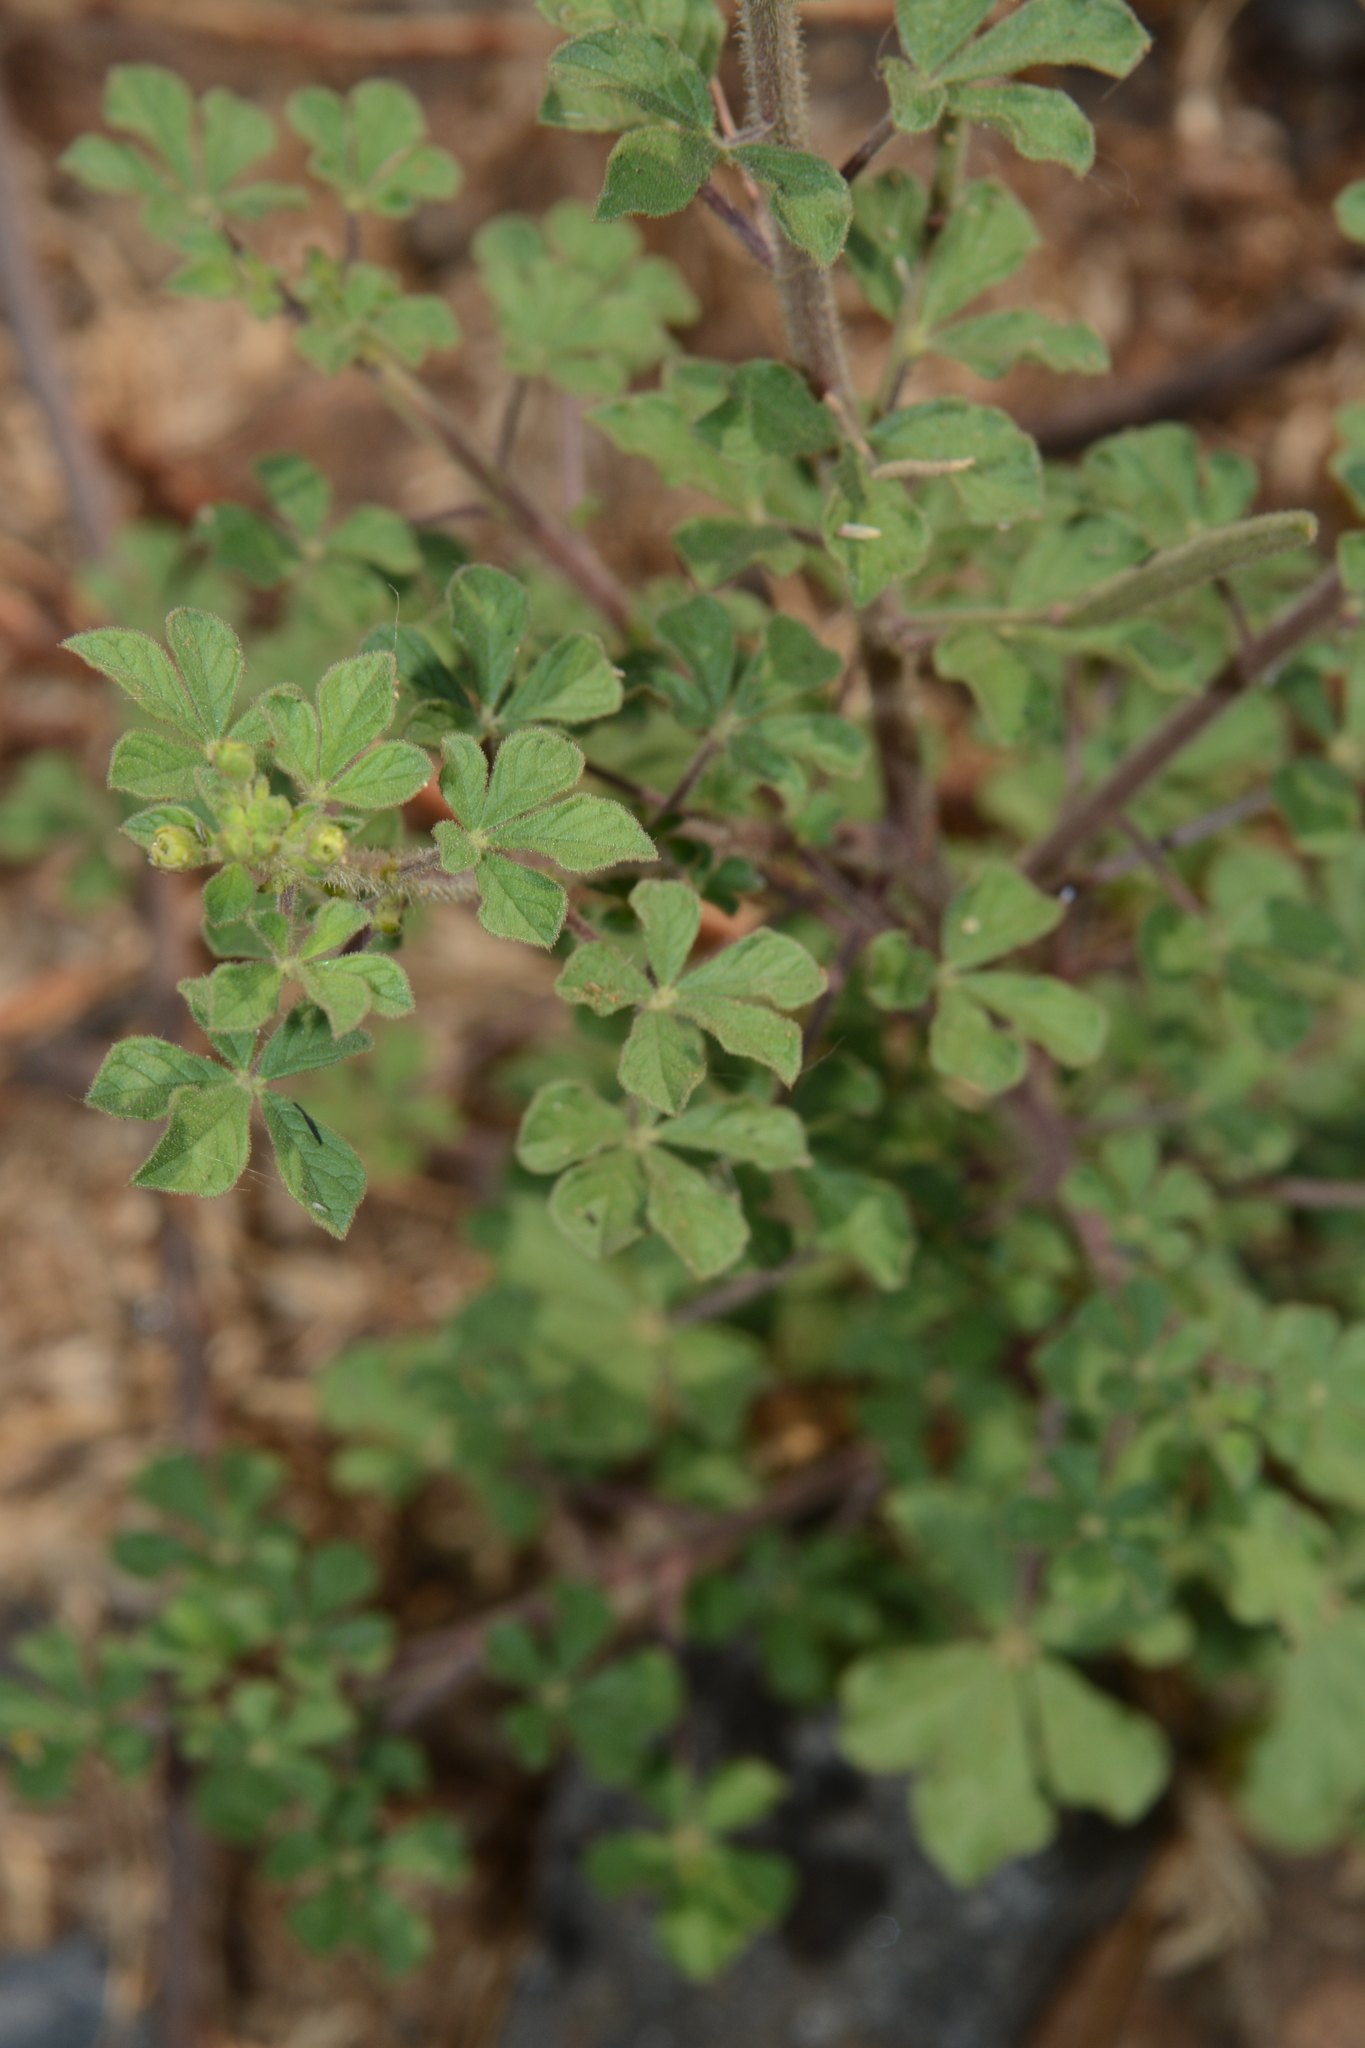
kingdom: Plantae
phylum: Tracheophyta
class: Magnoliopsida
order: Brassicales
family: Cleomaceae
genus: Arivela
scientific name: Arivela viscosa
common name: Asian spiderflower
